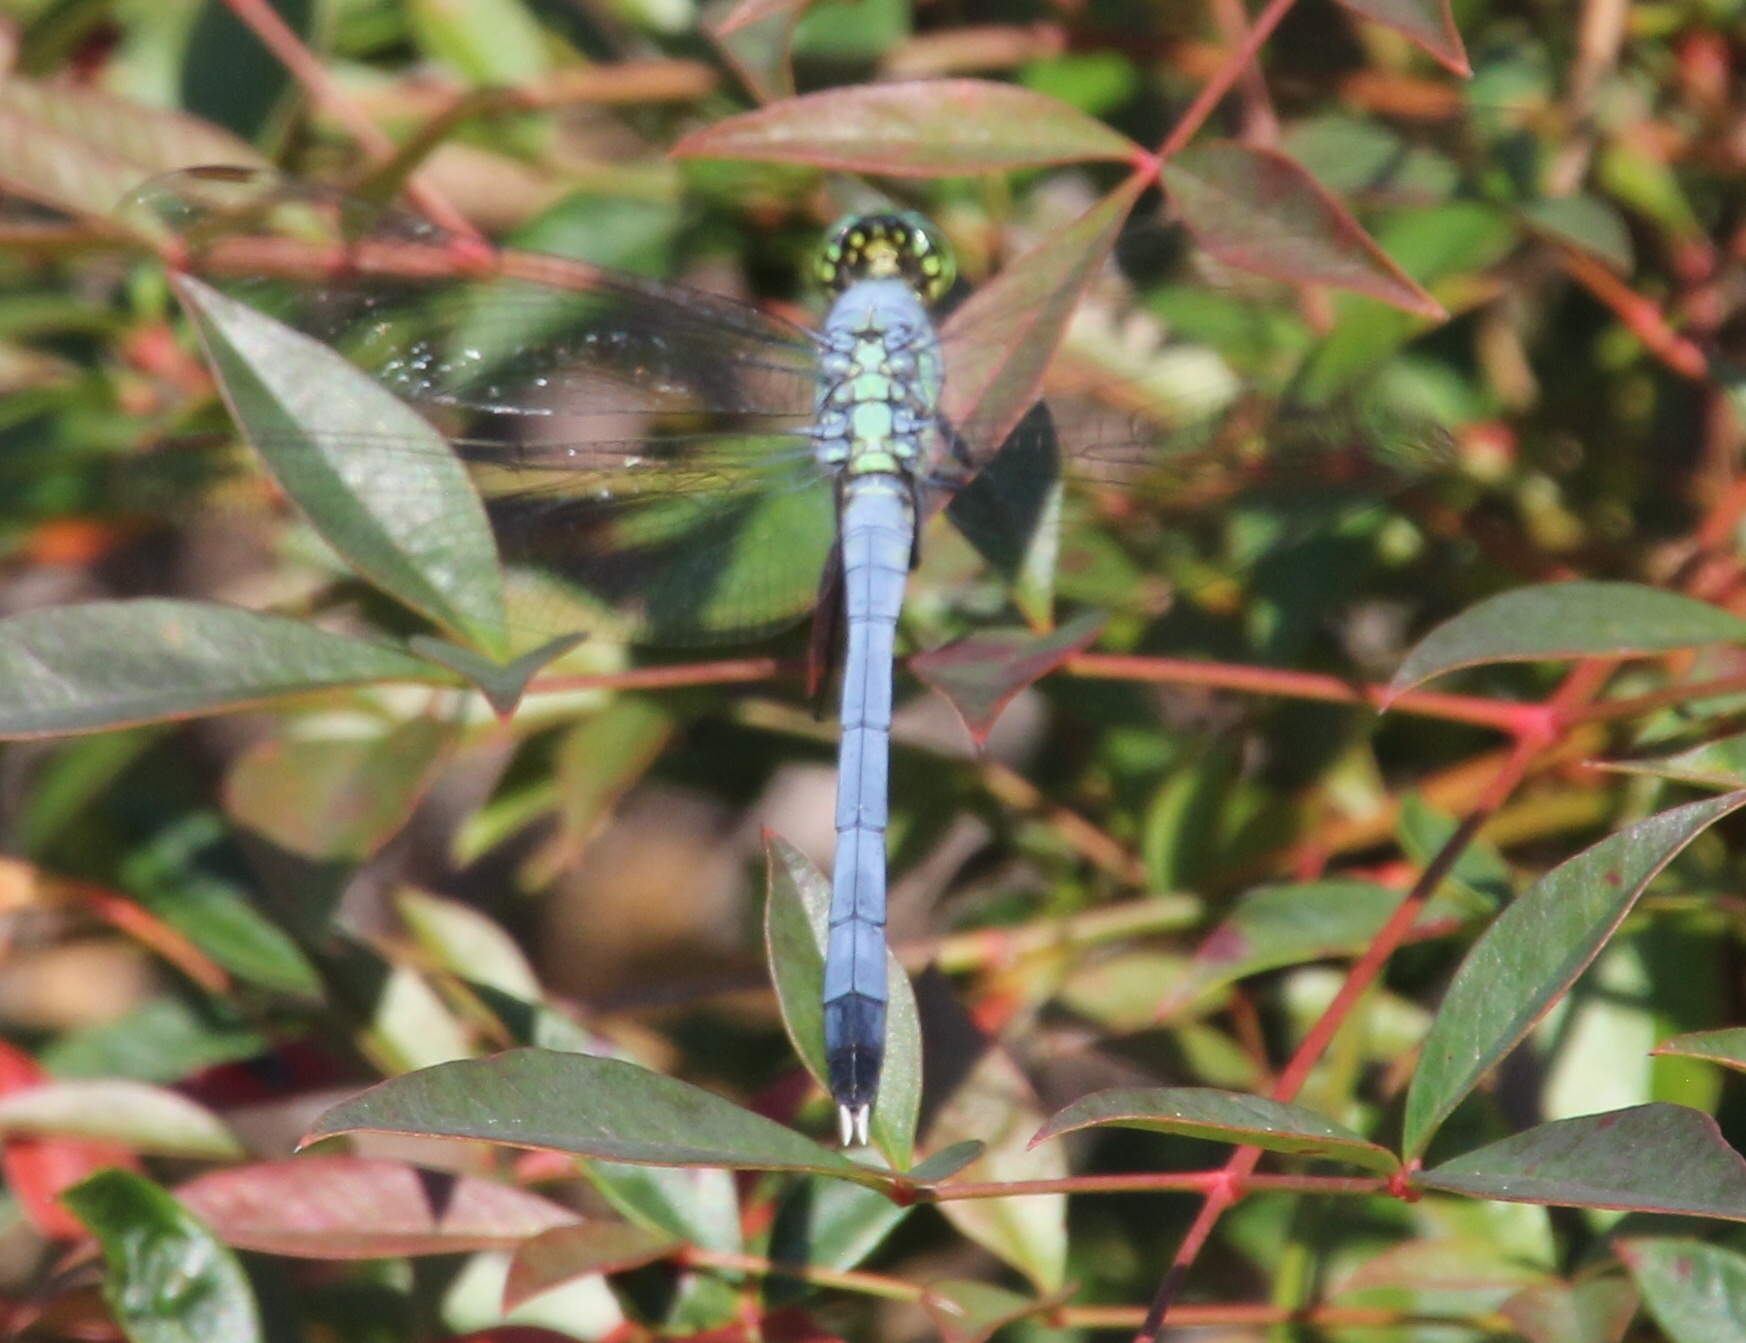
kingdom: Animalia
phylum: Arthropoda
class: Insecta
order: Odonata
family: Libellulidae
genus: Erythemis
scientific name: Erythemis simplicicollis
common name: Eastern pondhawk
